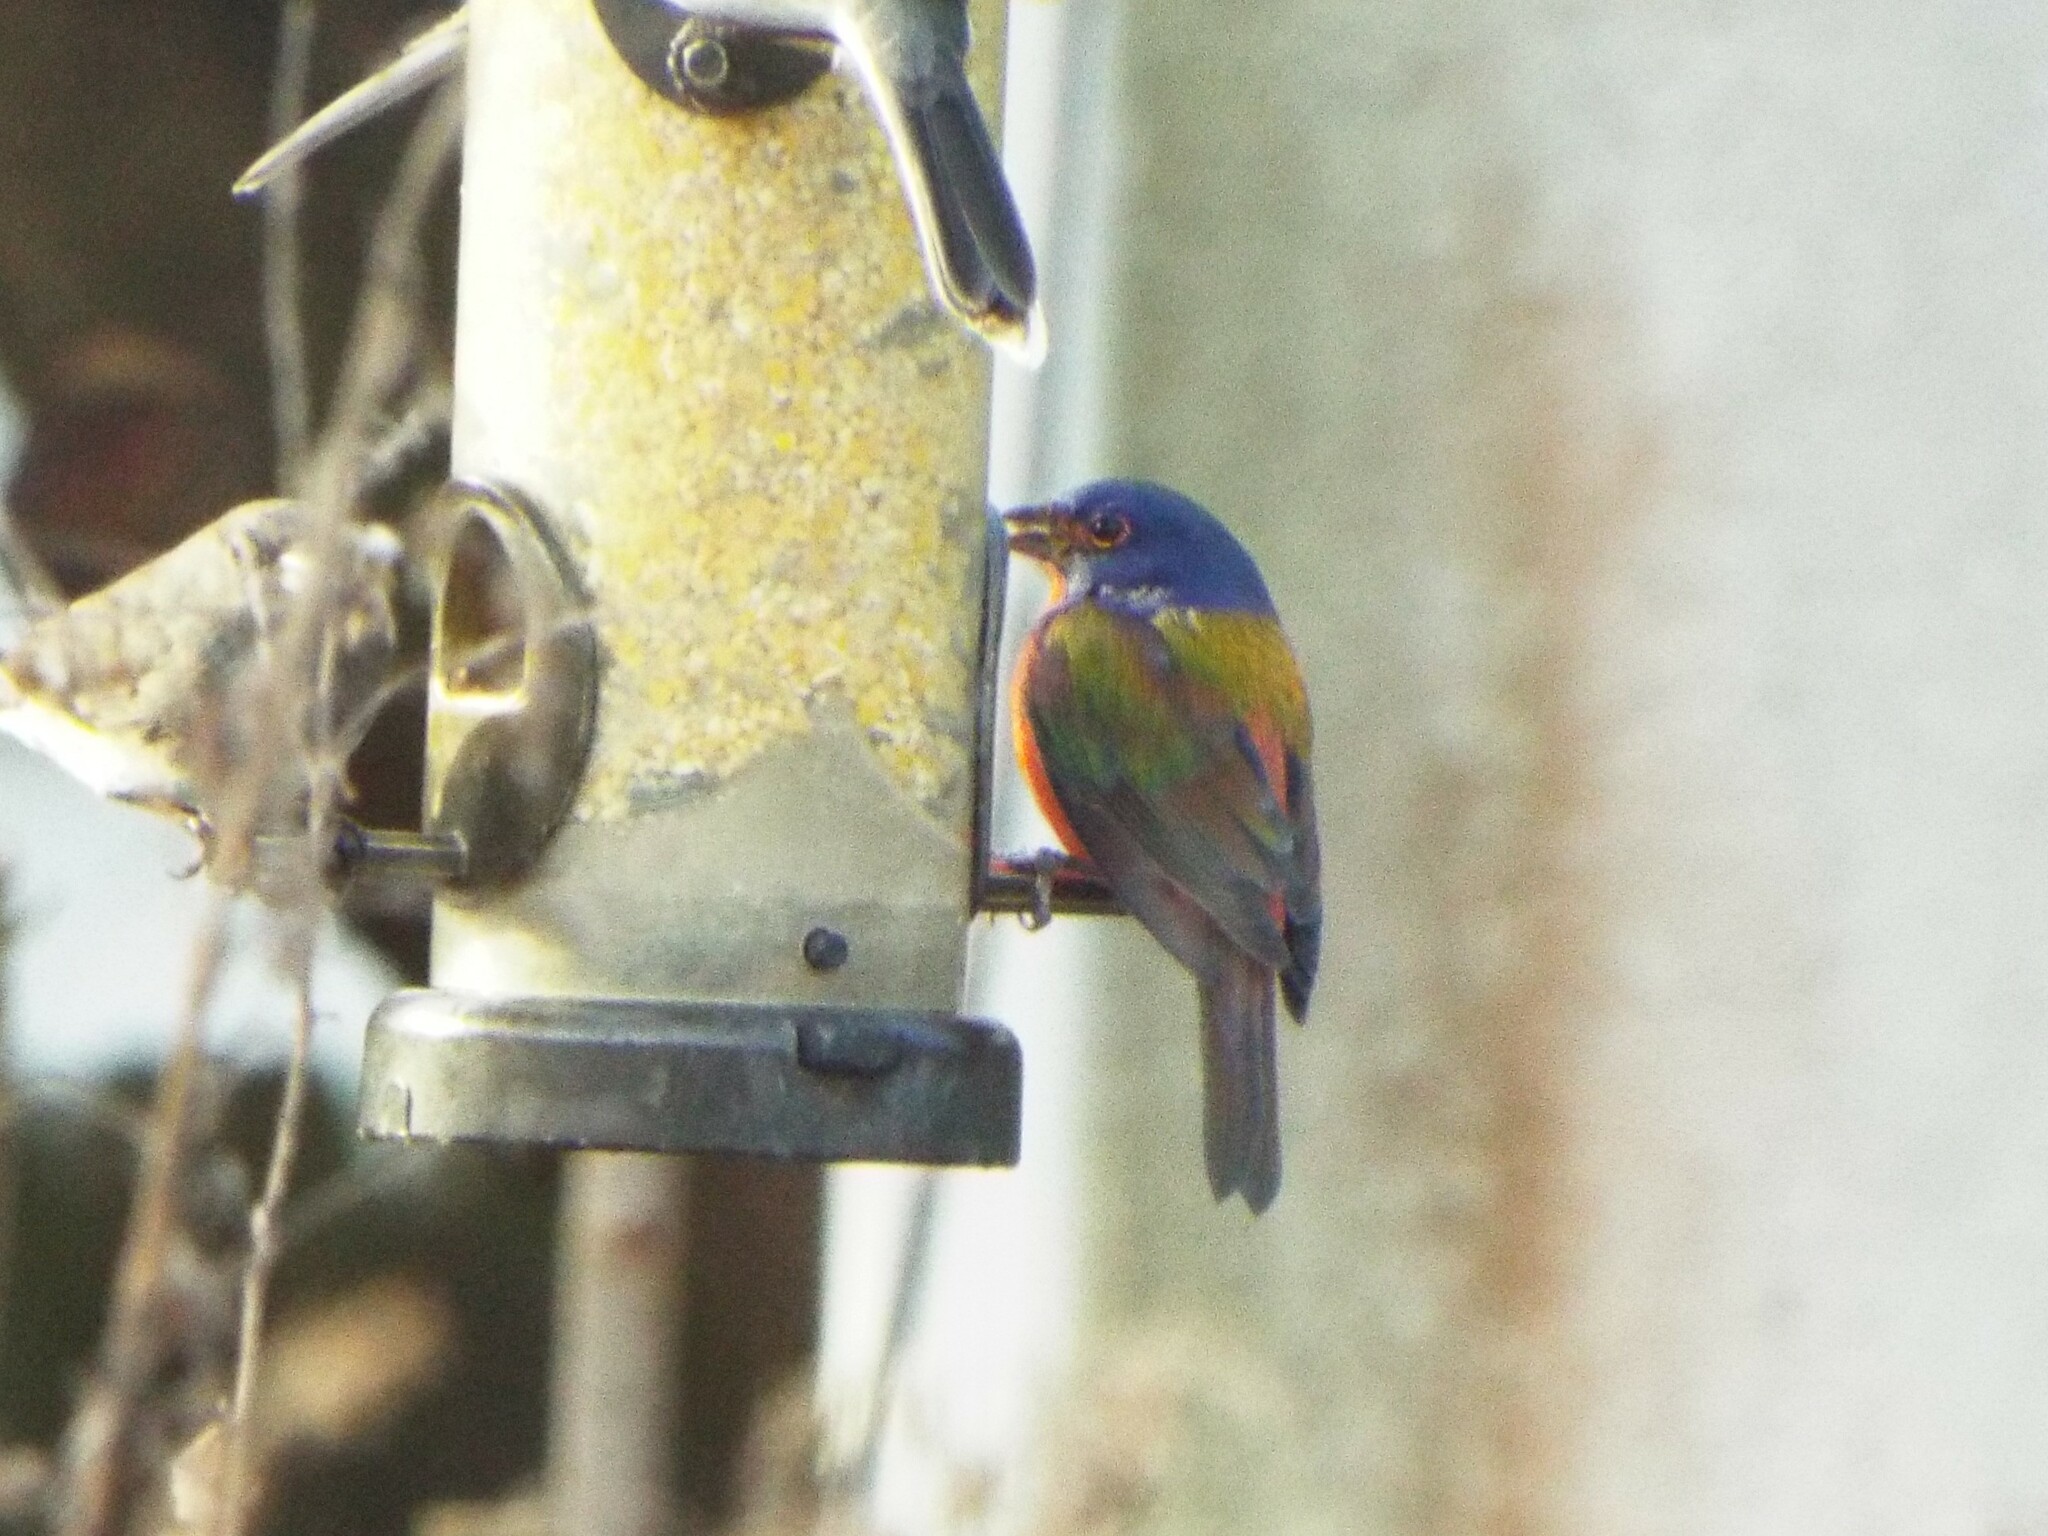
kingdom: Animalia
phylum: Chordata
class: Aves
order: Passeriformes
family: Cardinalidae
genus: Passerina
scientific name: Passerina ciris
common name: Painted bunting
